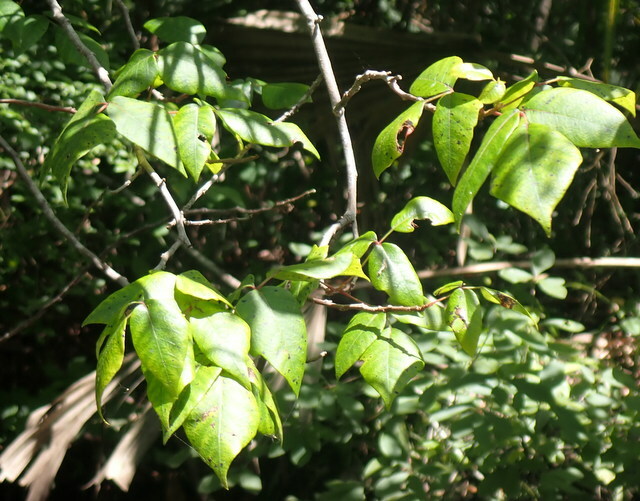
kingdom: Plantae
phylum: Tracheophyta
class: Magnoliopsida
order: Sapindales
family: Anacardiaceae
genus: Toxicodendron
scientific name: Toxicodendron radicans
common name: Poison ivy
